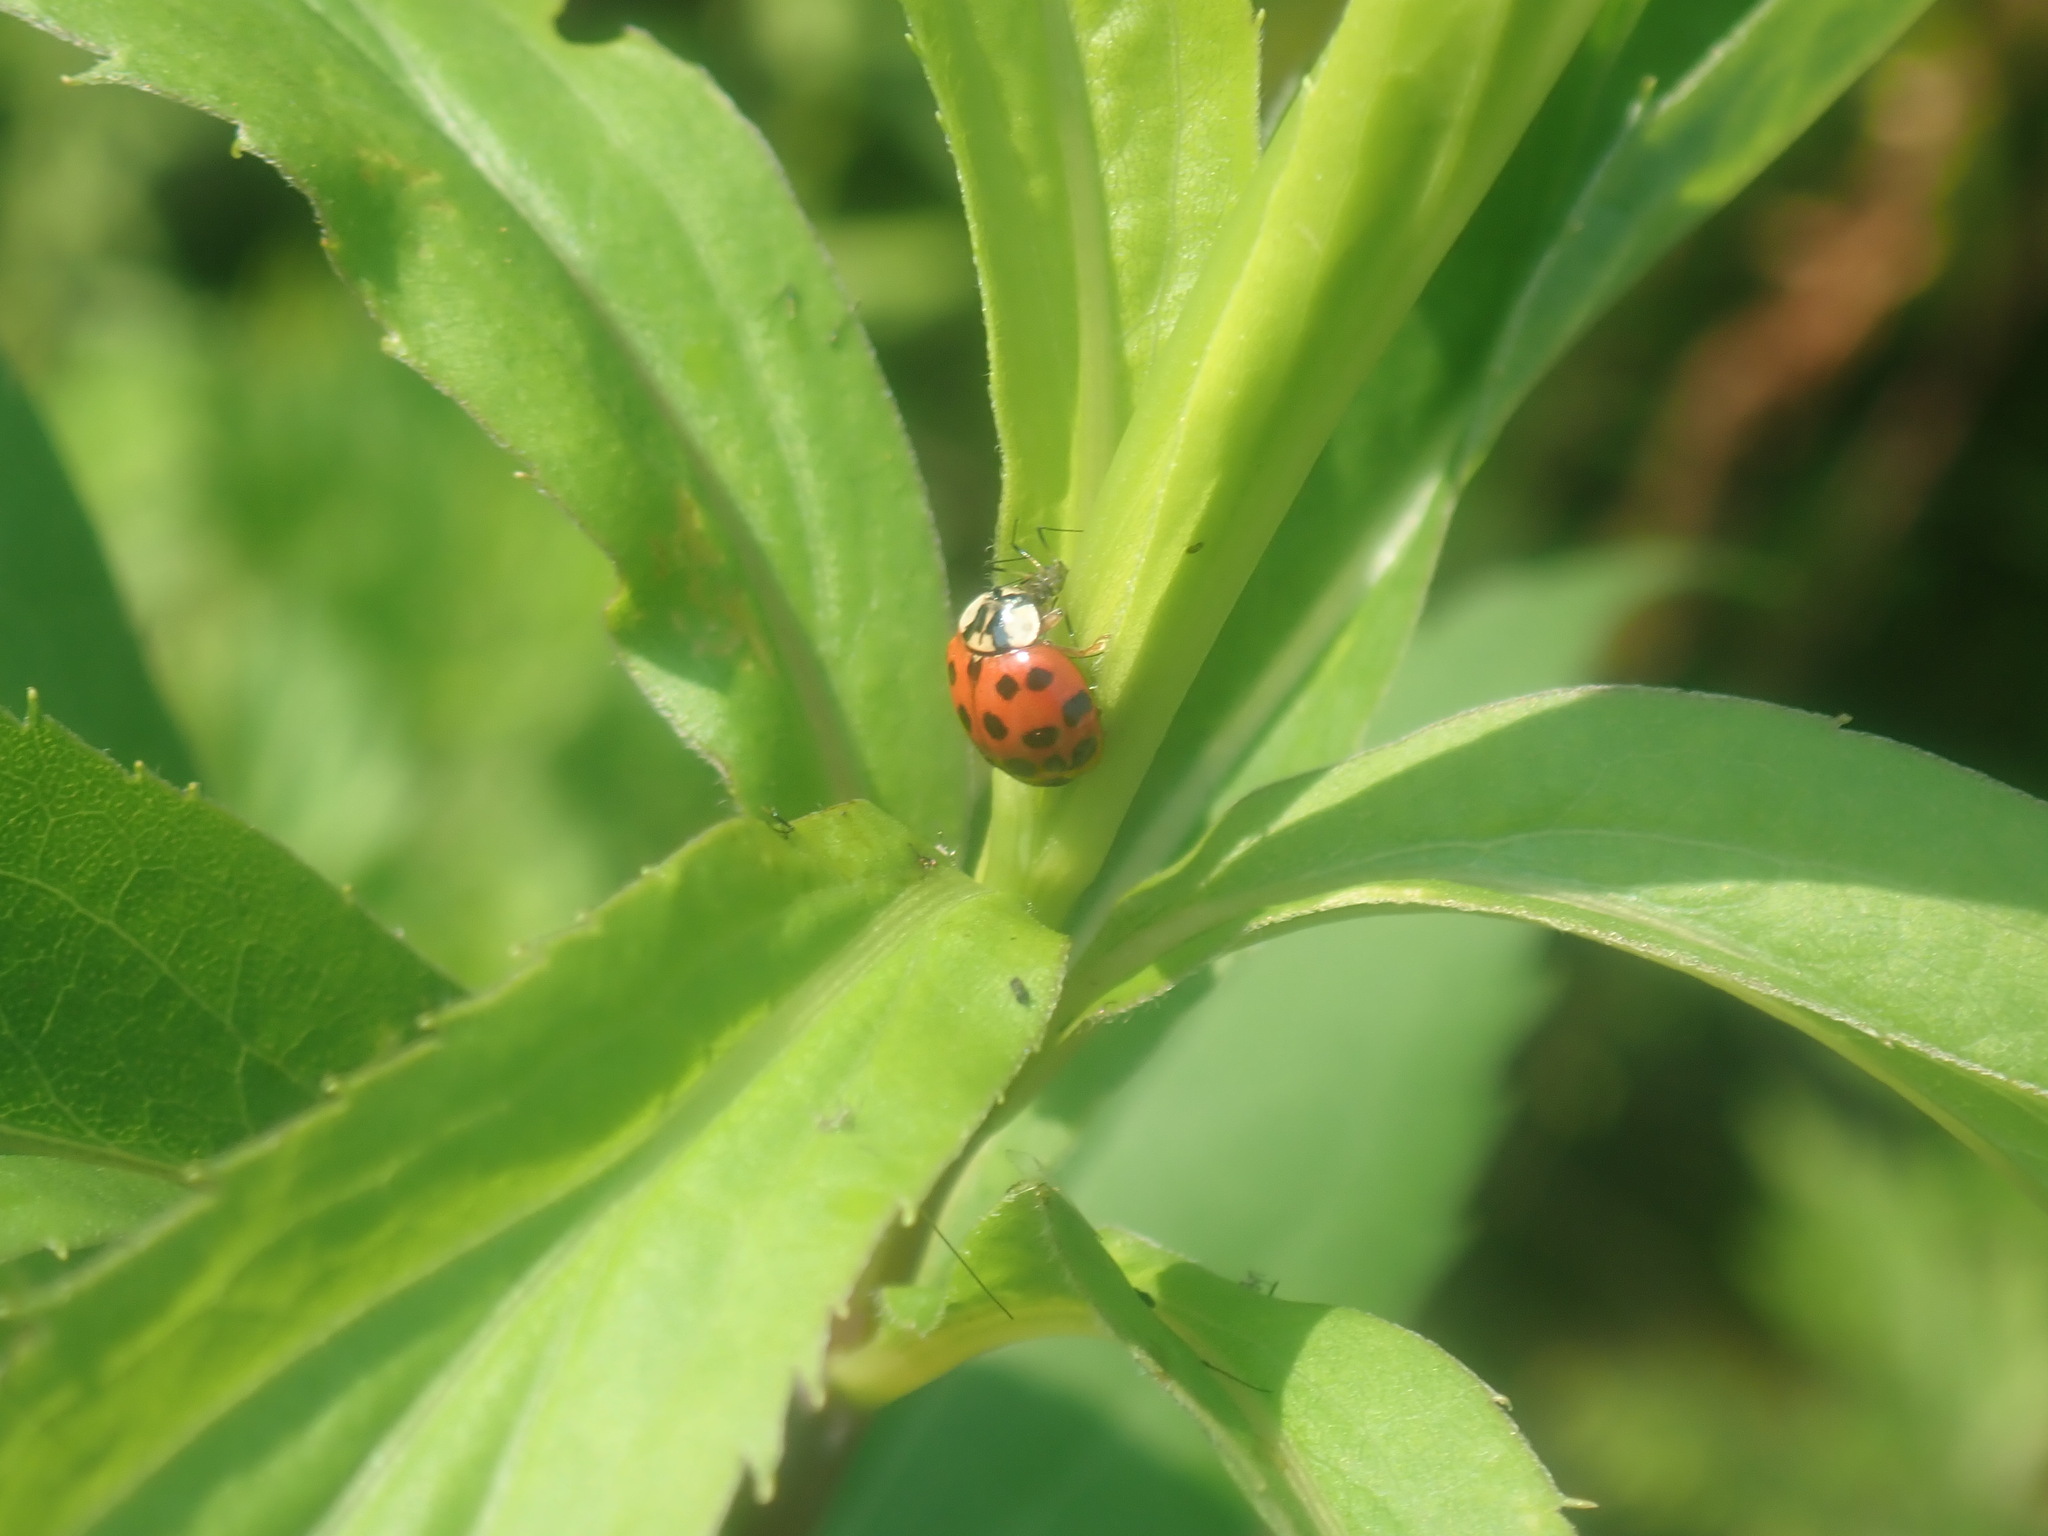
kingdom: Animalia
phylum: Arthropoda
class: Insecta
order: Coleoptera
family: Coccinellidae
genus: Harmonia
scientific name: Harmonia axyridis
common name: Harlequin ladybird
